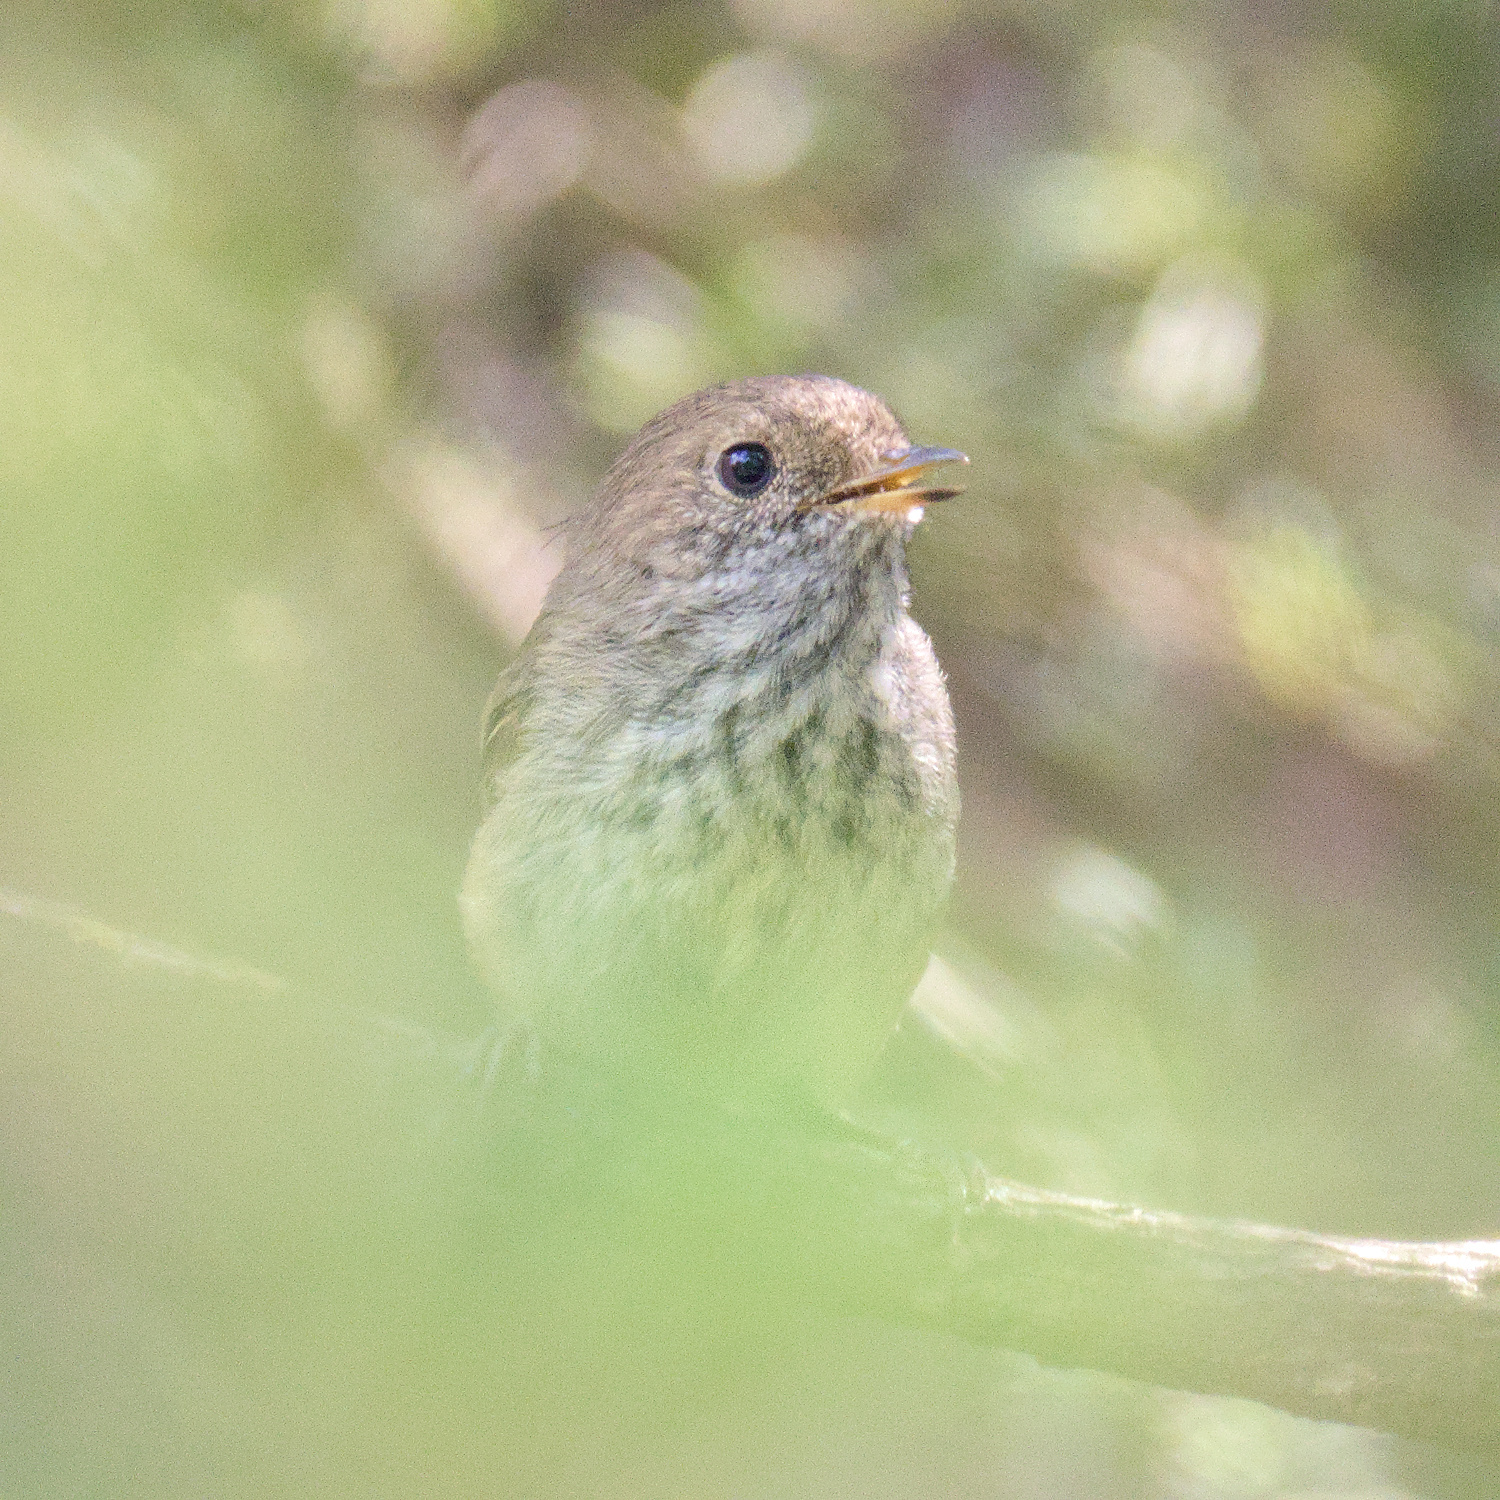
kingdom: Animalia
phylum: Chordata
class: Aves
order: Passeriformes
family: Acanthizidae
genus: Acanthiza
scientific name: Acanthiza pusilla
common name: Brown thornbill
